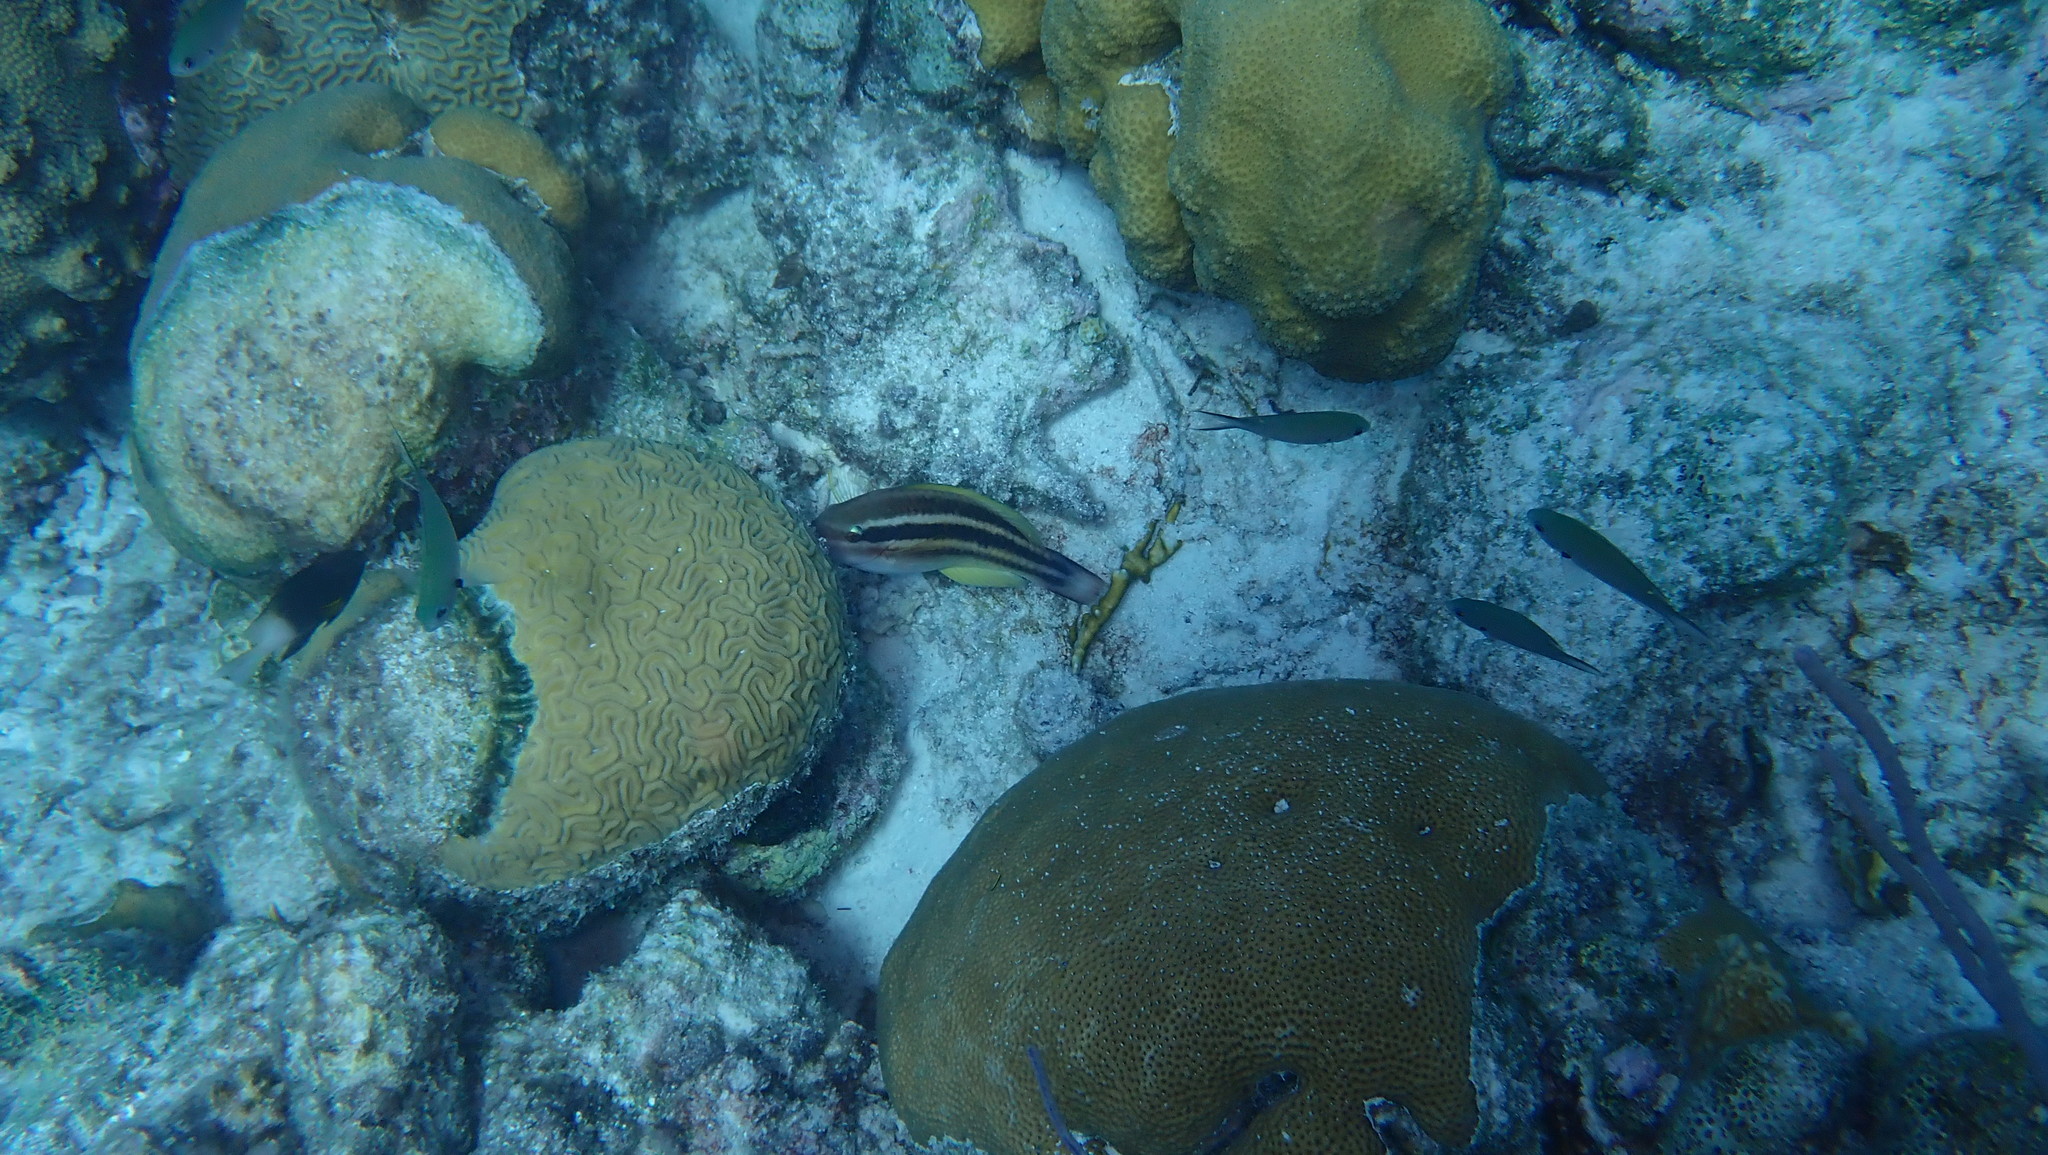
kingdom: Animalia
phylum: Chordata
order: Perciformes
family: Scaridae
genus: Scarus
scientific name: Scarus taeniopterus
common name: Princess parrotfish
